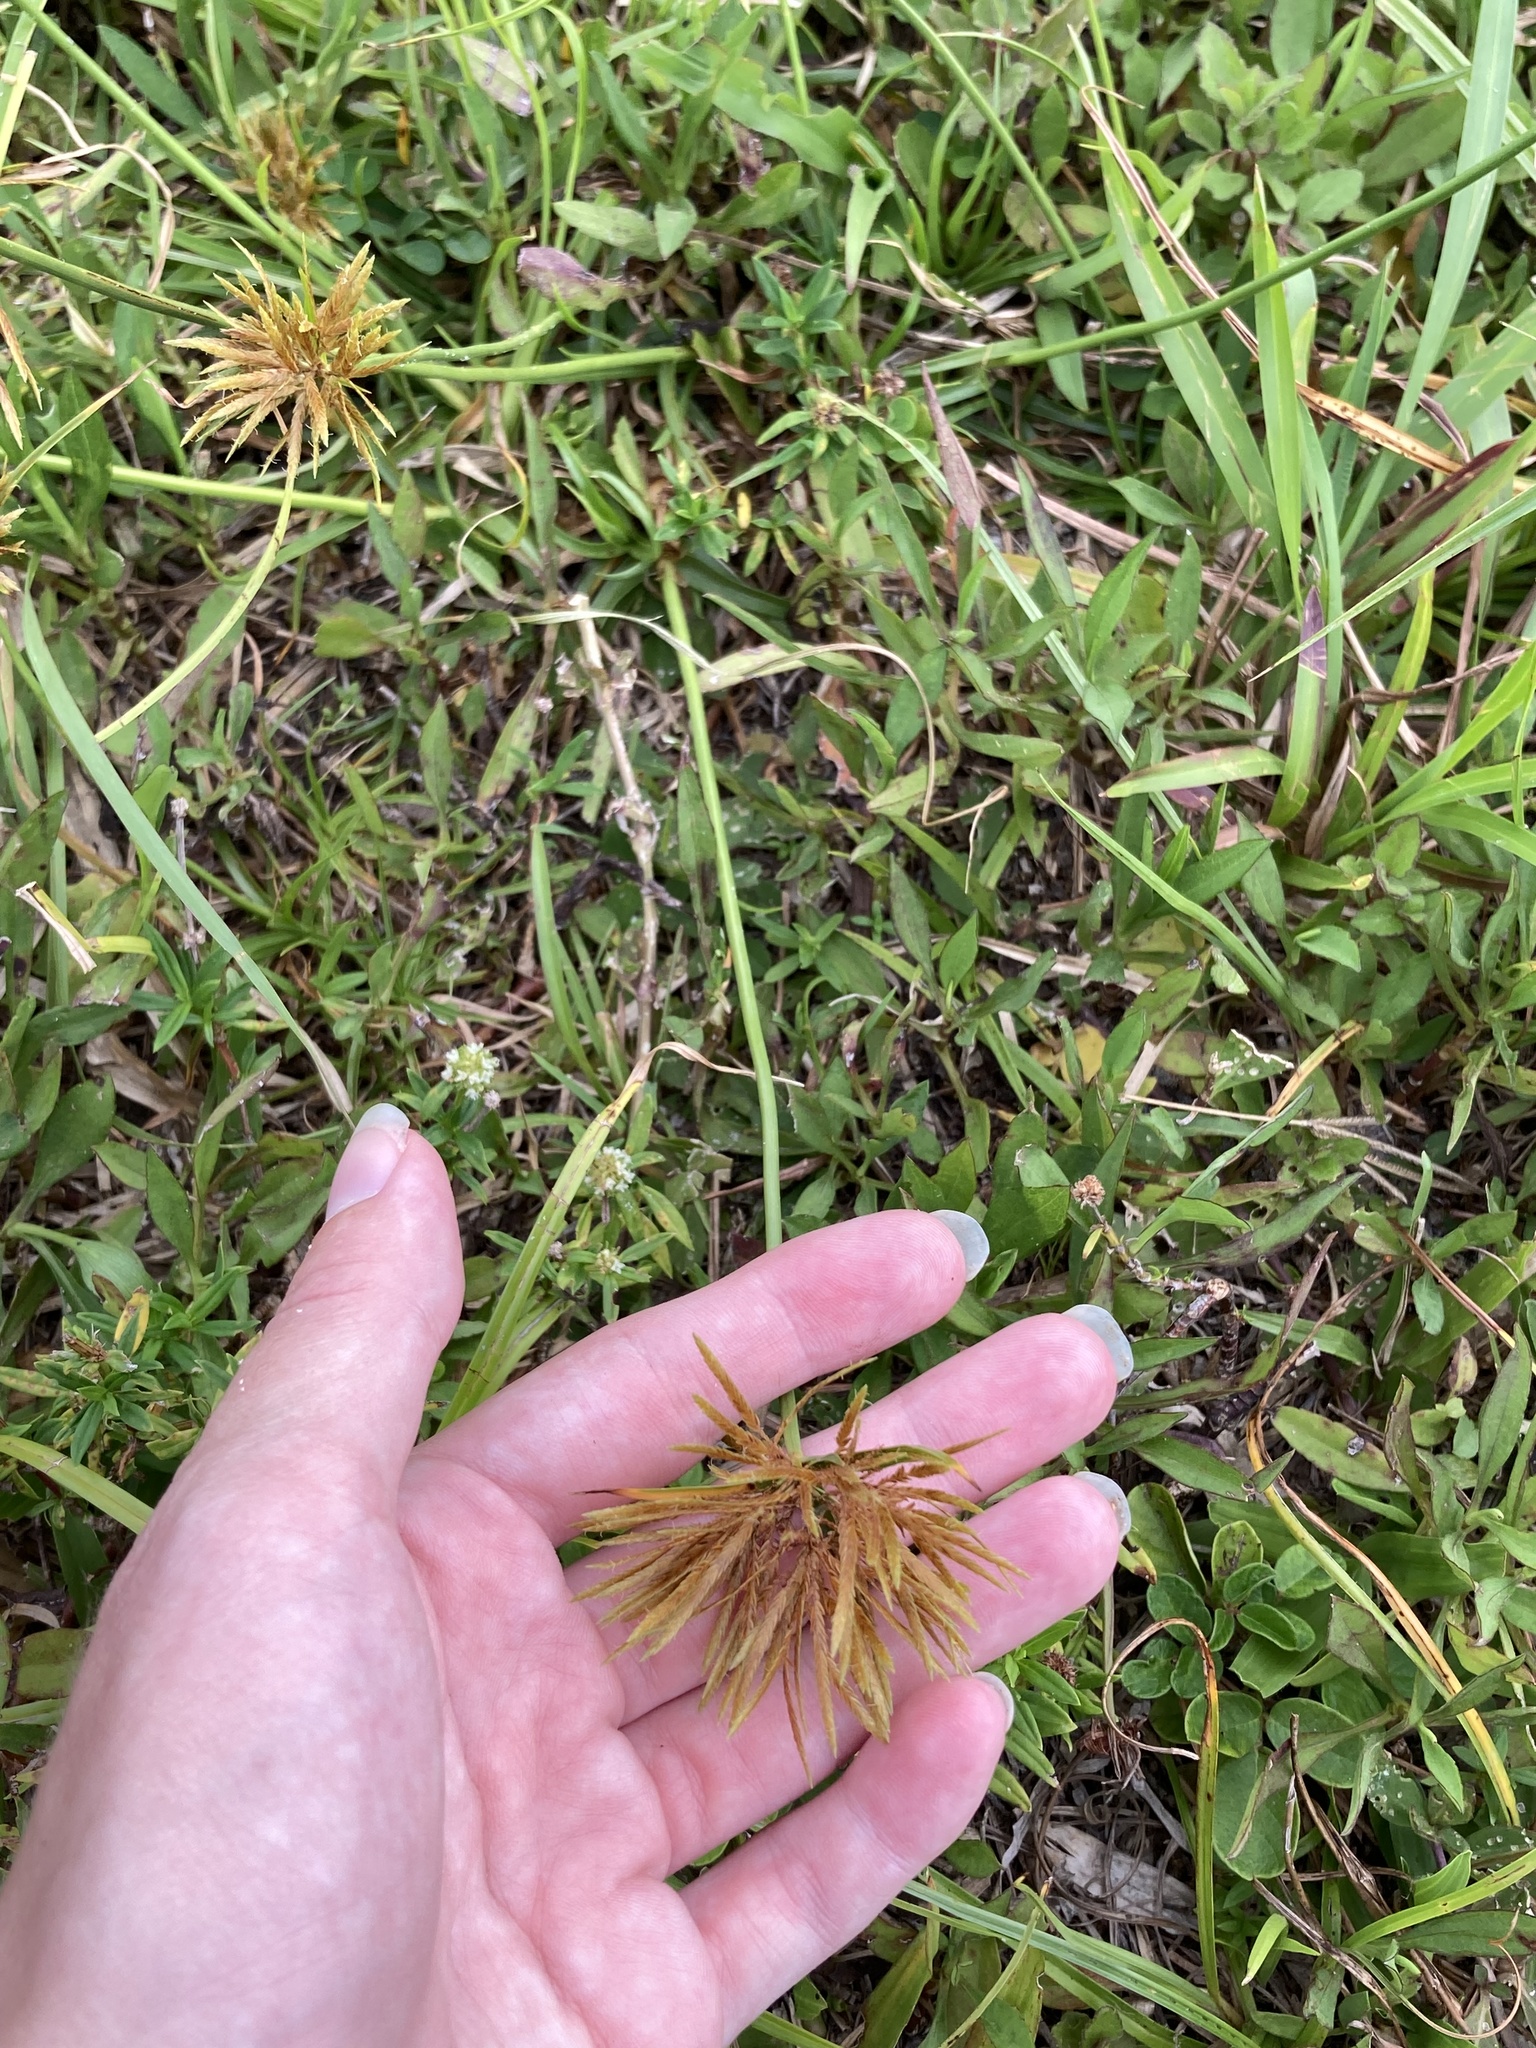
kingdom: Plantae
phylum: Tracheophyta
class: Liliopsida
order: Poales
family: Cyperaceae
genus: Cyperus
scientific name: Cyperus polystachyos
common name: Bunchy flat sedge
